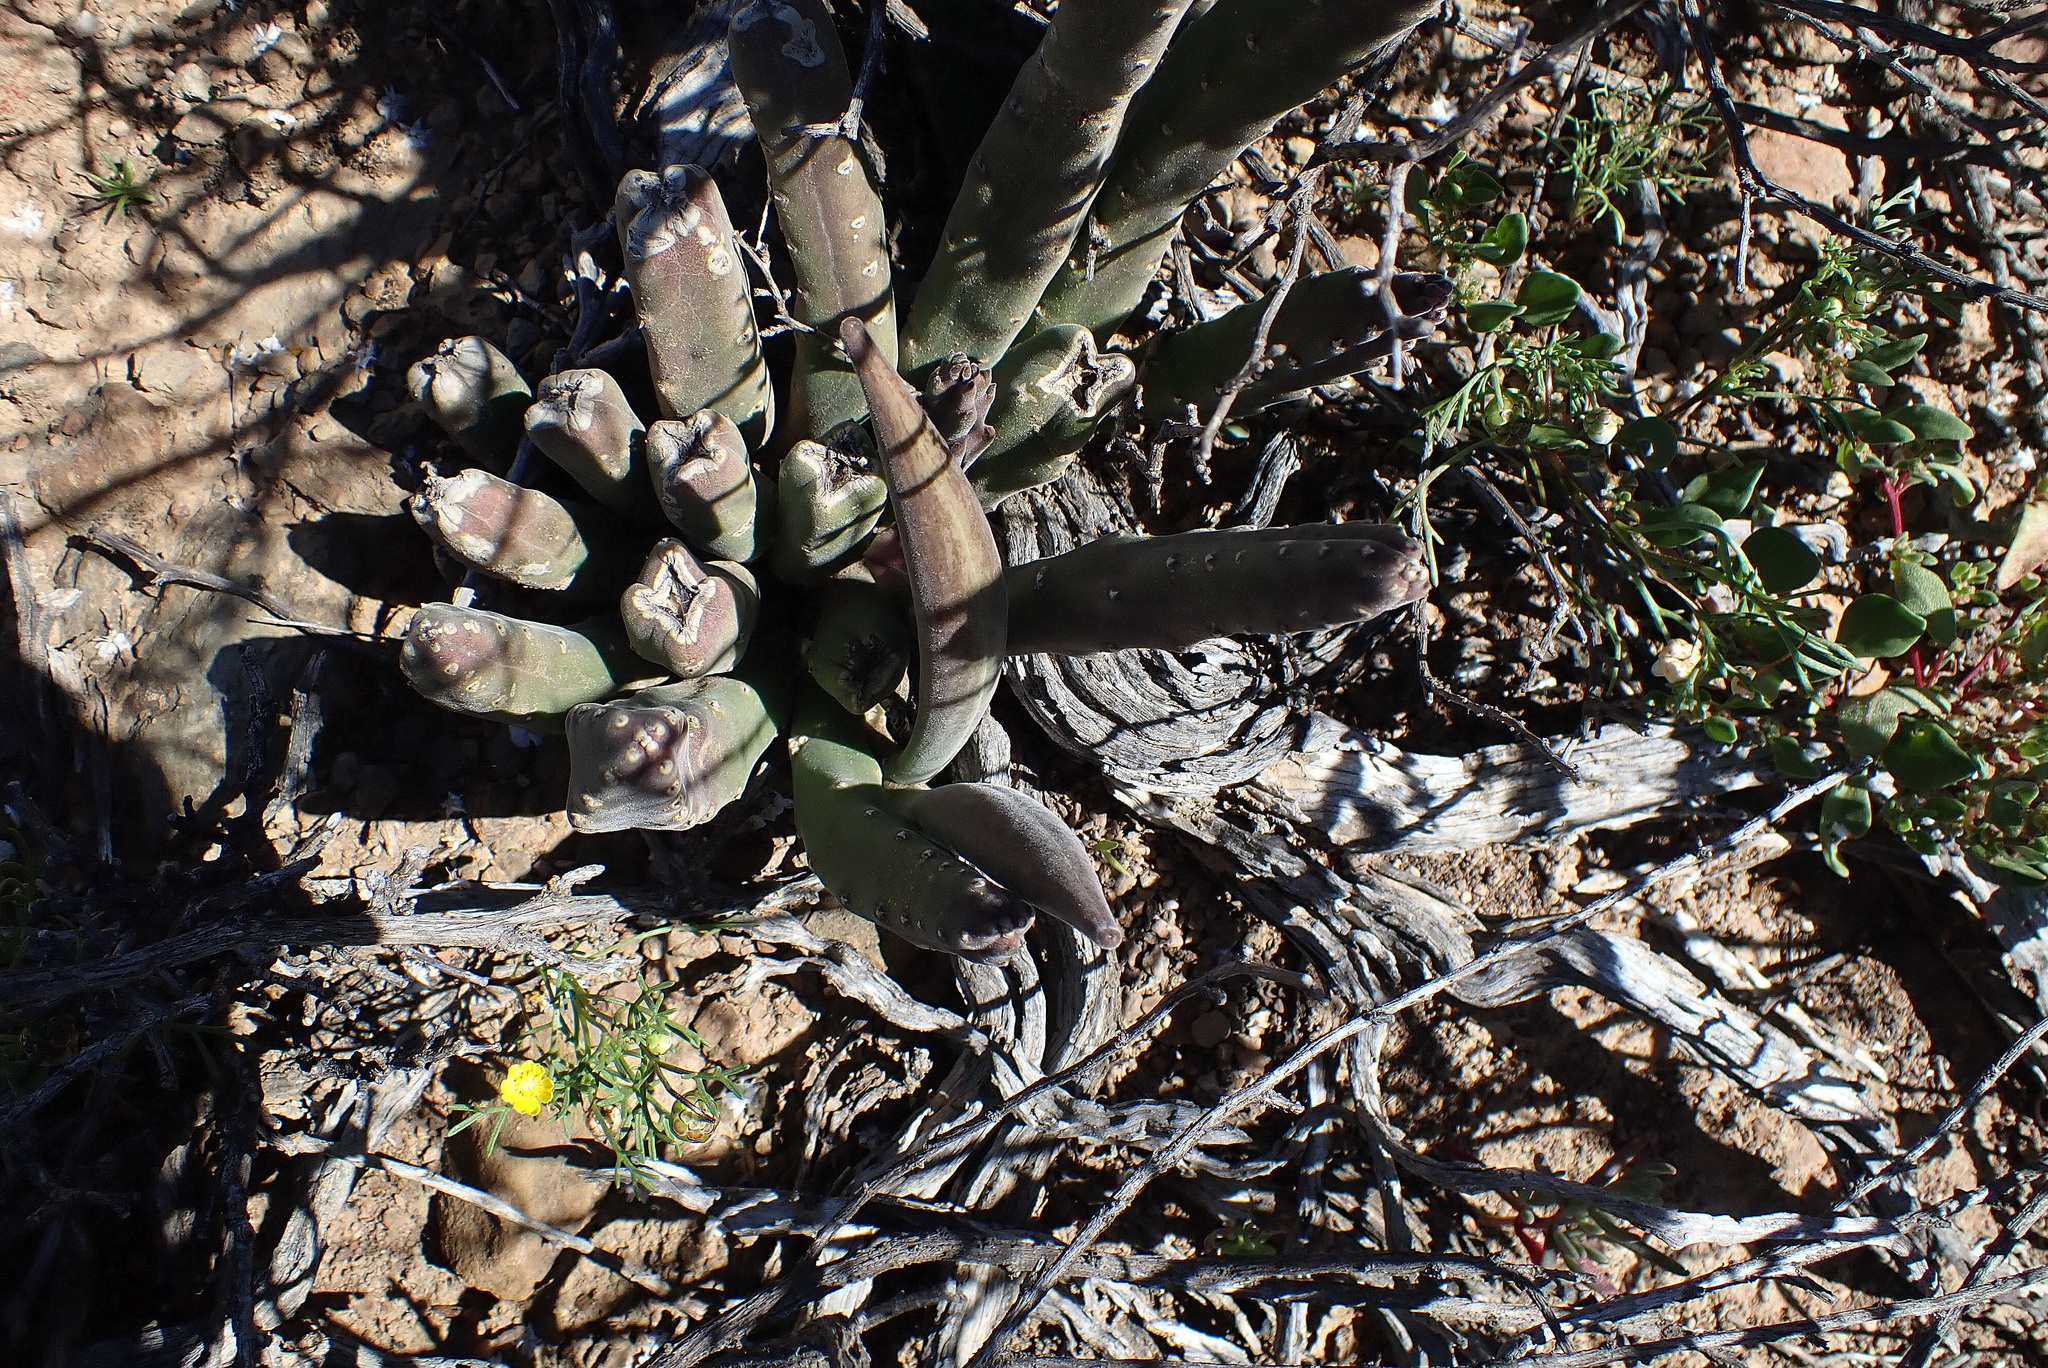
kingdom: Plantae
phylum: Tracheophyta
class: Magnoliopsida
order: Gentianales
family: Apocynaceae
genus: Ceropegia
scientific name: Ceropegia rufa
